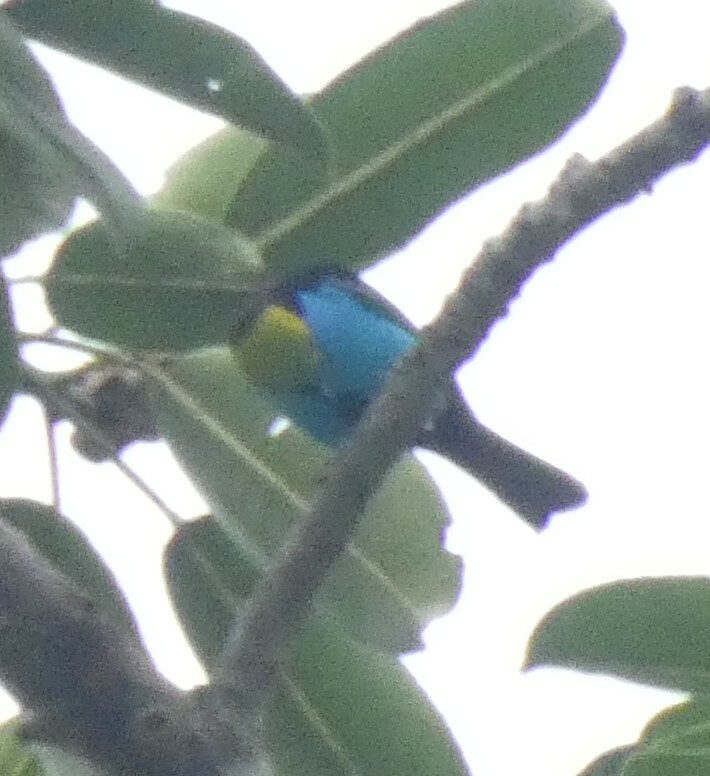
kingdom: Animalia
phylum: Chordata
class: Aves
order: Passeriformes
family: Thraupidae
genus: Tangara
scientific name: Tangara chilensis
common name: Paradise tanager
